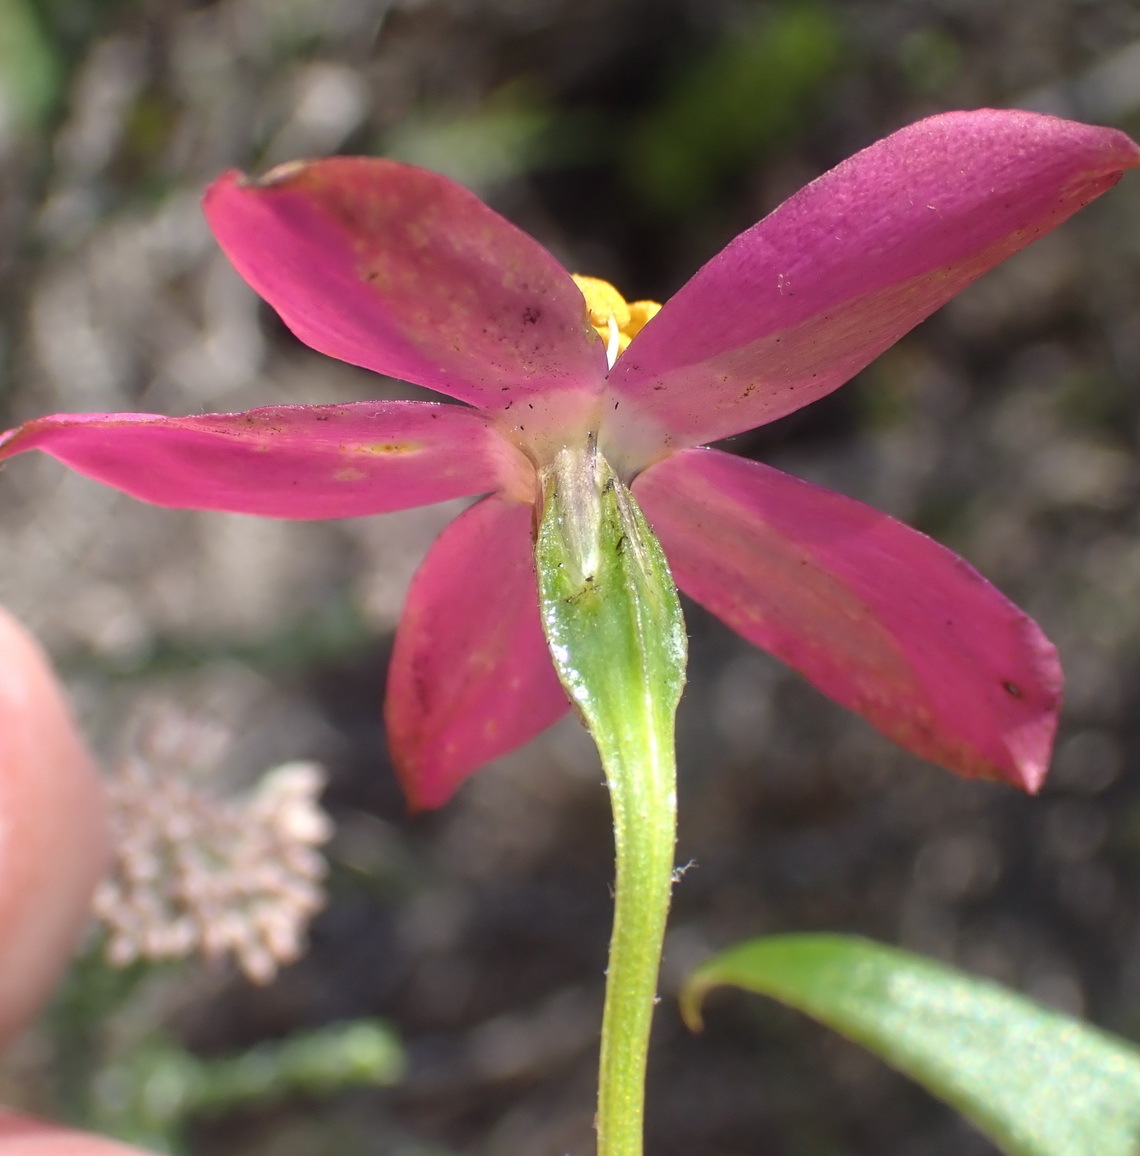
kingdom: Plantae
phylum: Tracheophyta
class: Magnoliopsida
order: Gentianales
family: Gentianaceae
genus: Chironia
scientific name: Chironia tetragona
